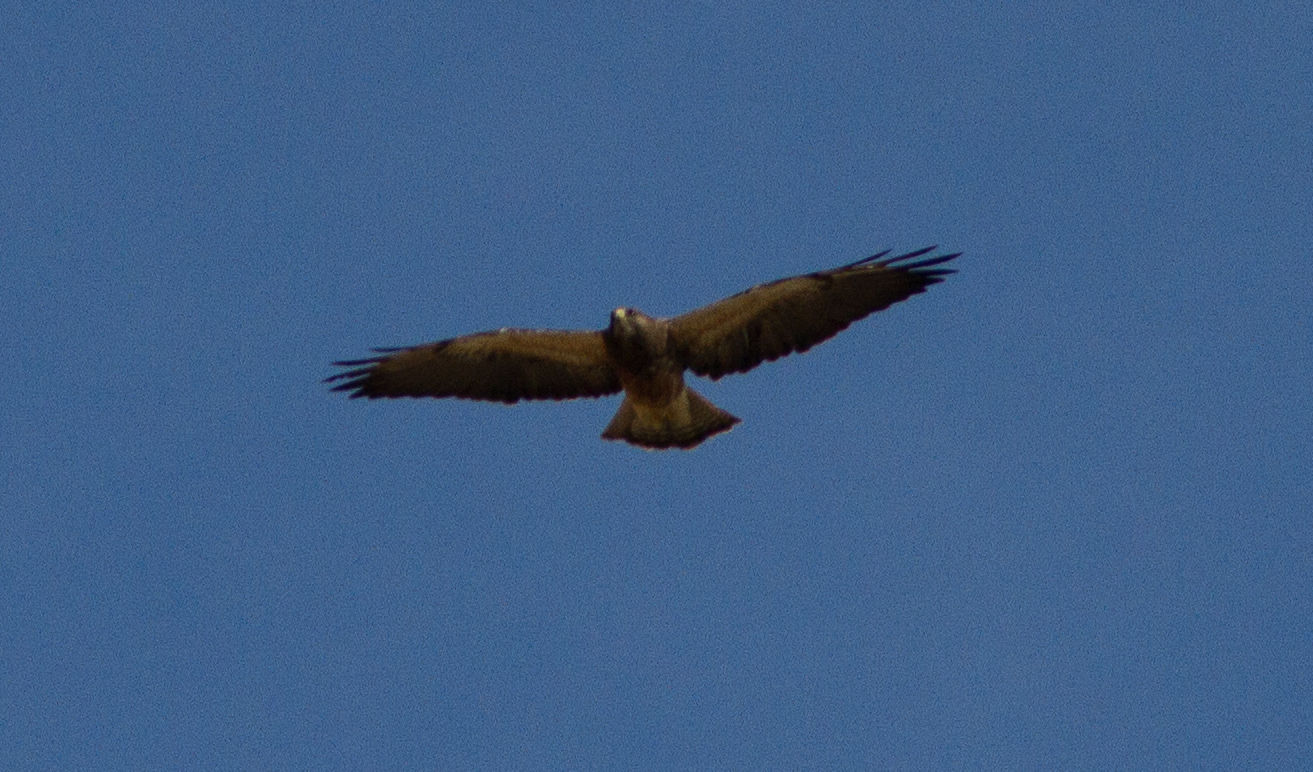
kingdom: Animalia
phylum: Chordata
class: Aves
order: Accipitriformes
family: Accipitridae
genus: Buteo
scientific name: Buteo swainsoni
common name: Swainson's hawk
